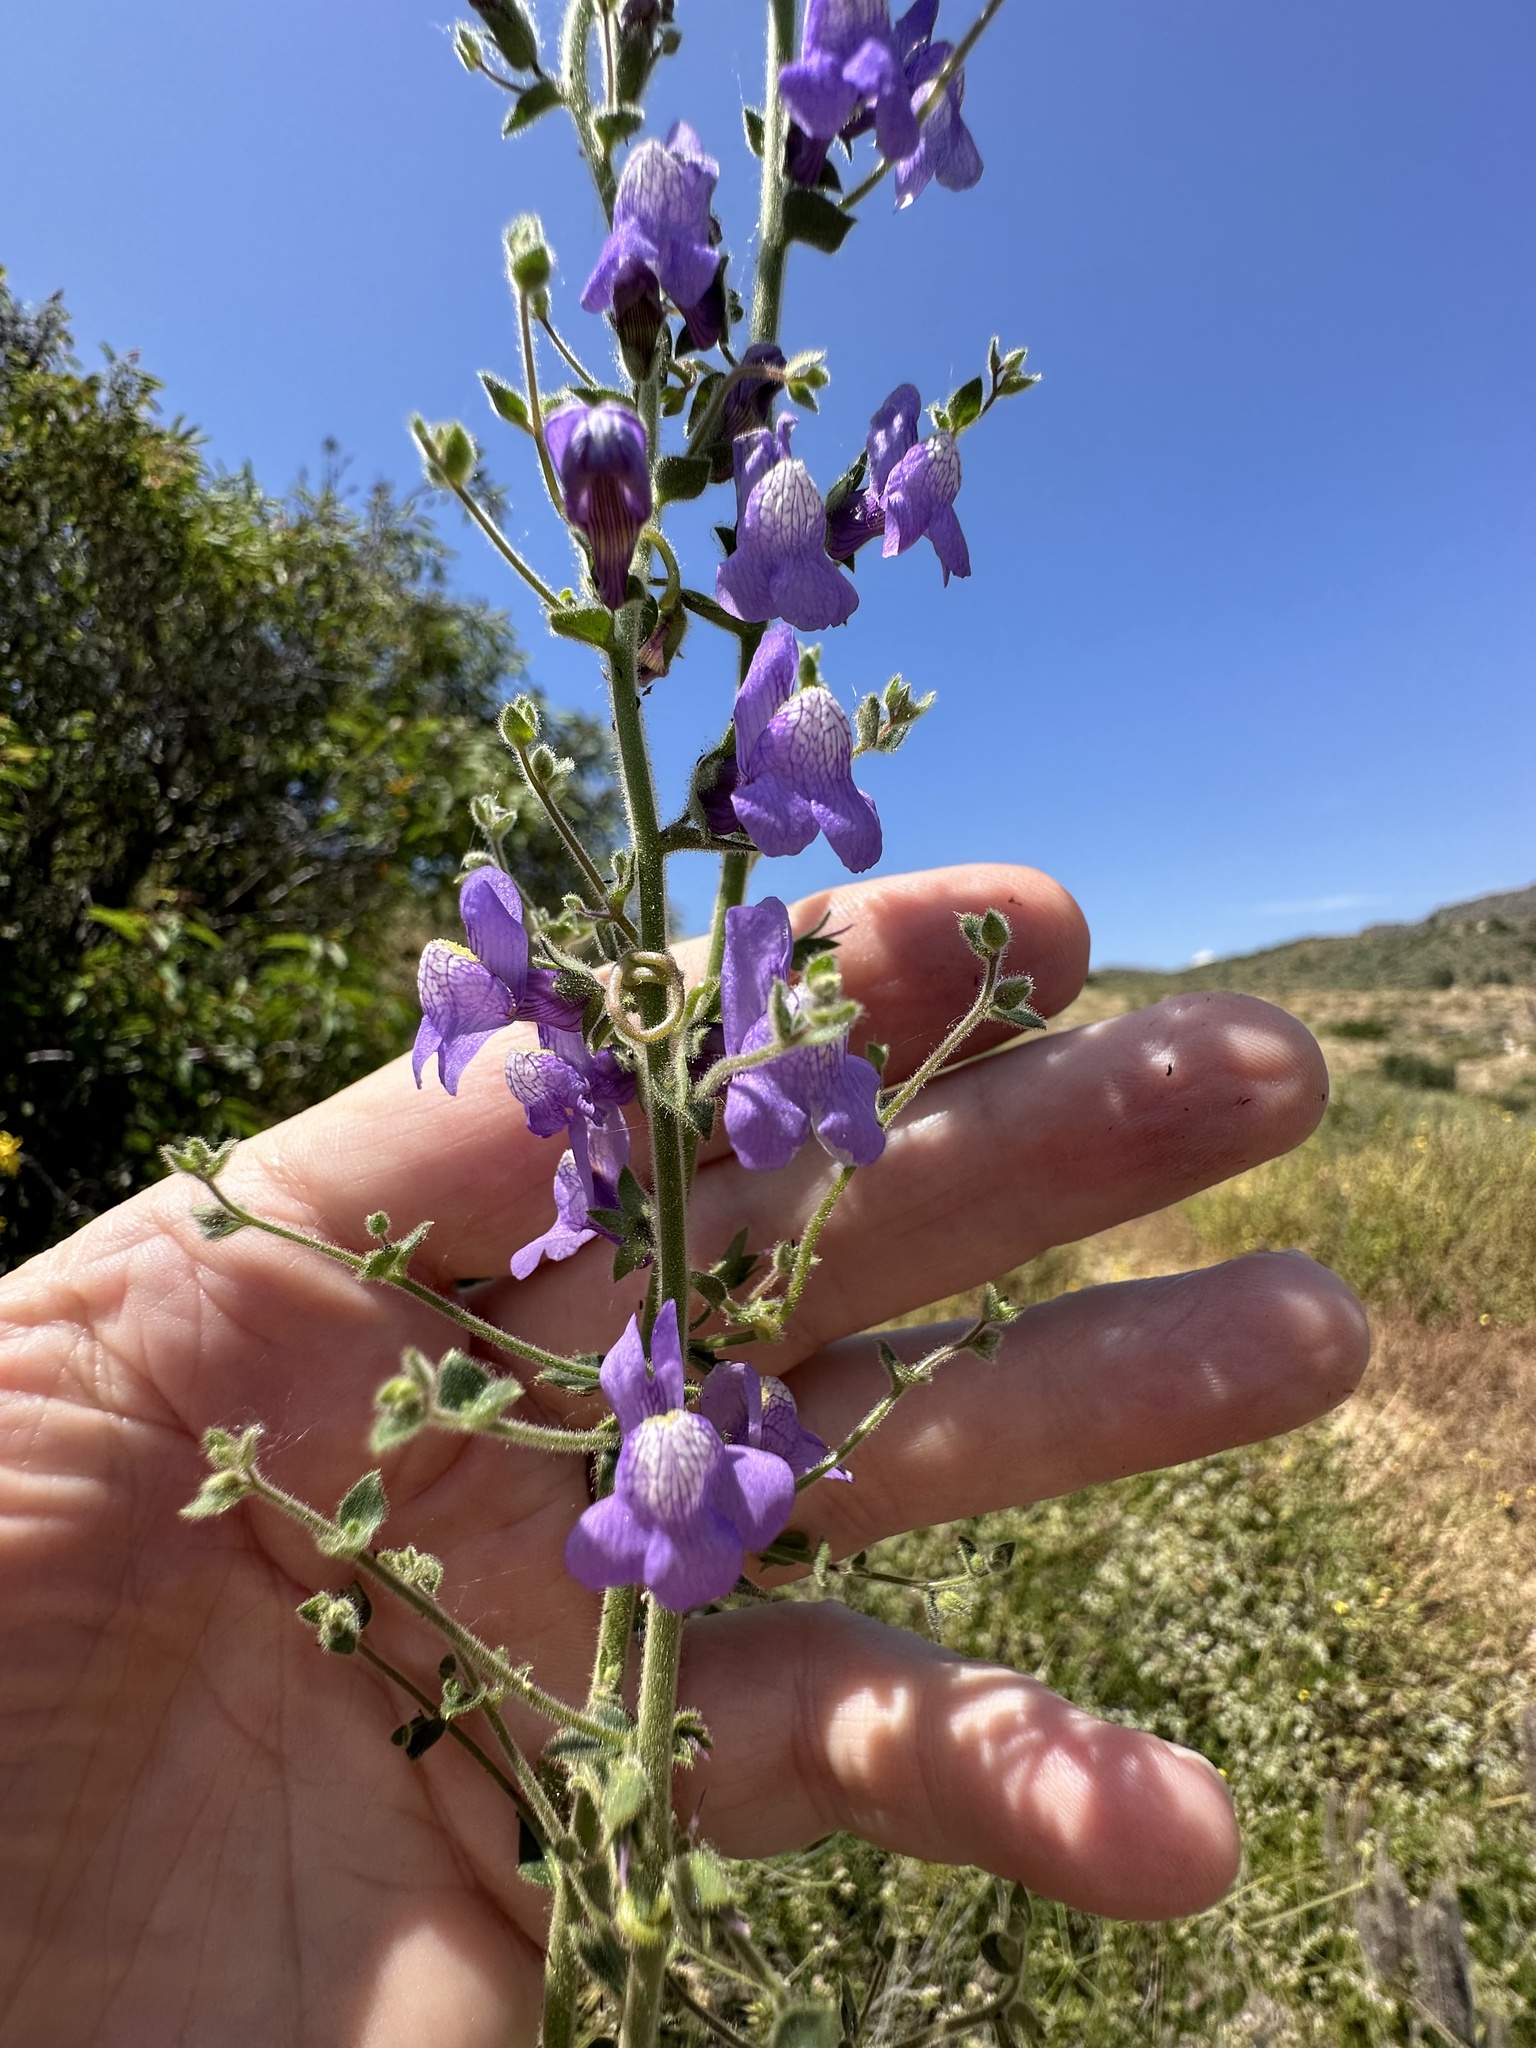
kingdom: Plantae
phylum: Tracheophyta
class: Magnoliopsida
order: Lamiales
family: Plantaginaceae
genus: Sairocarpus
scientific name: Sairocarpus nuttallianus
